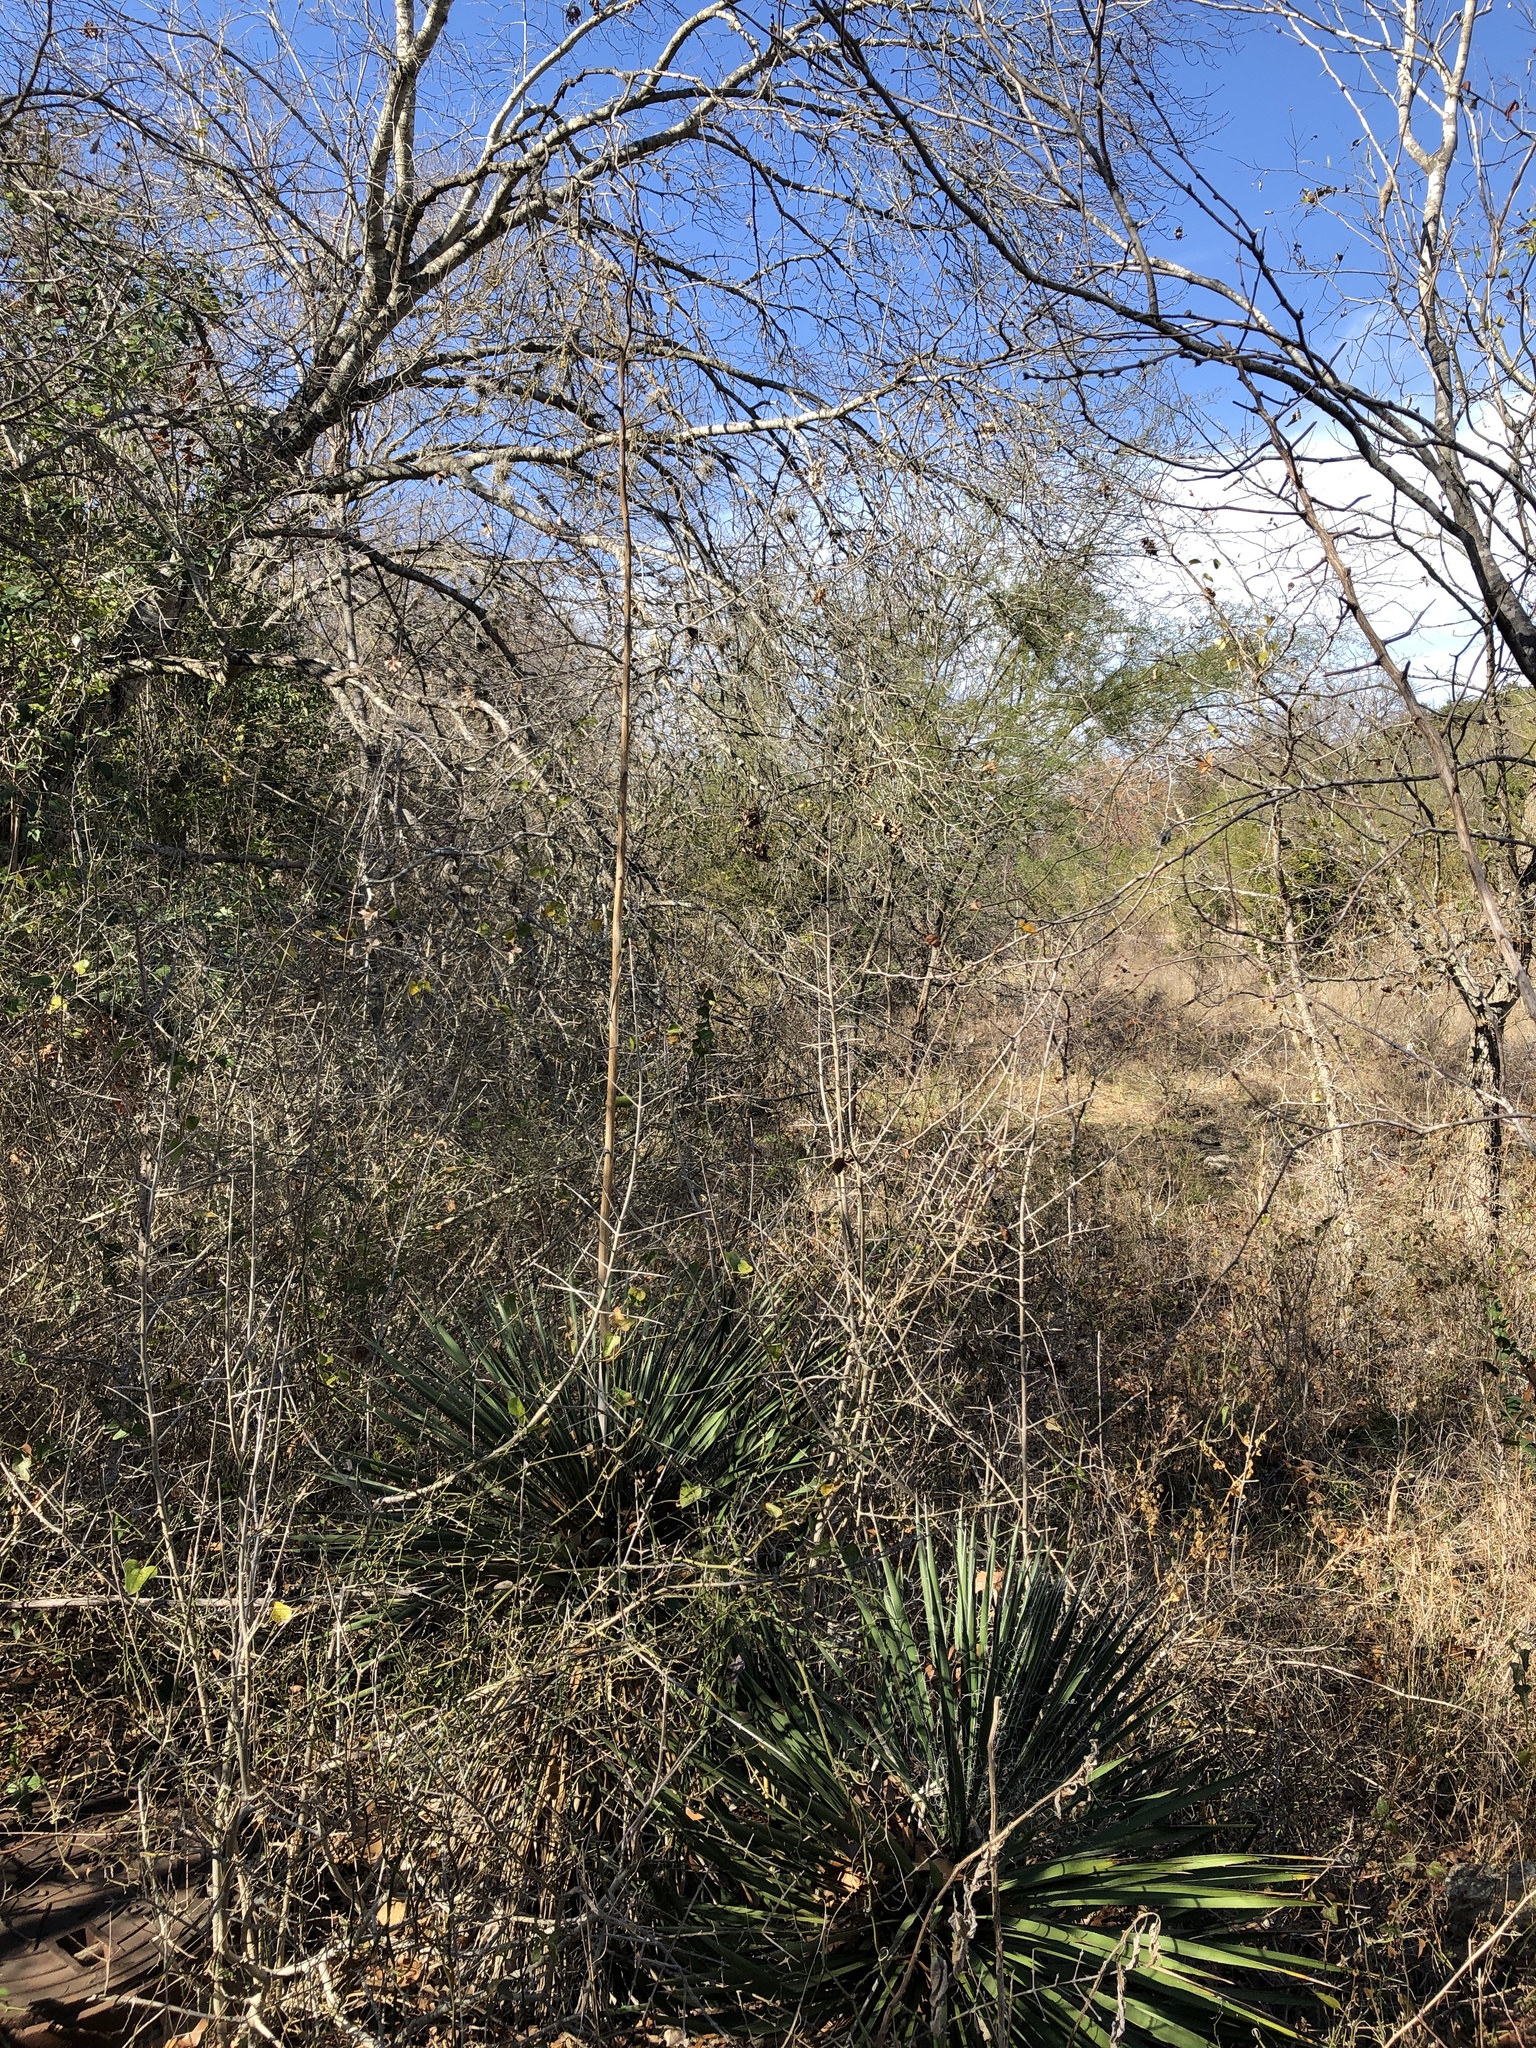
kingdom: Plantae
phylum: Tracheophyta
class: Liliopsida
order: Asparagales
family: Asparagaceae
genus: Yucca
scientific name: Yucca constricta
